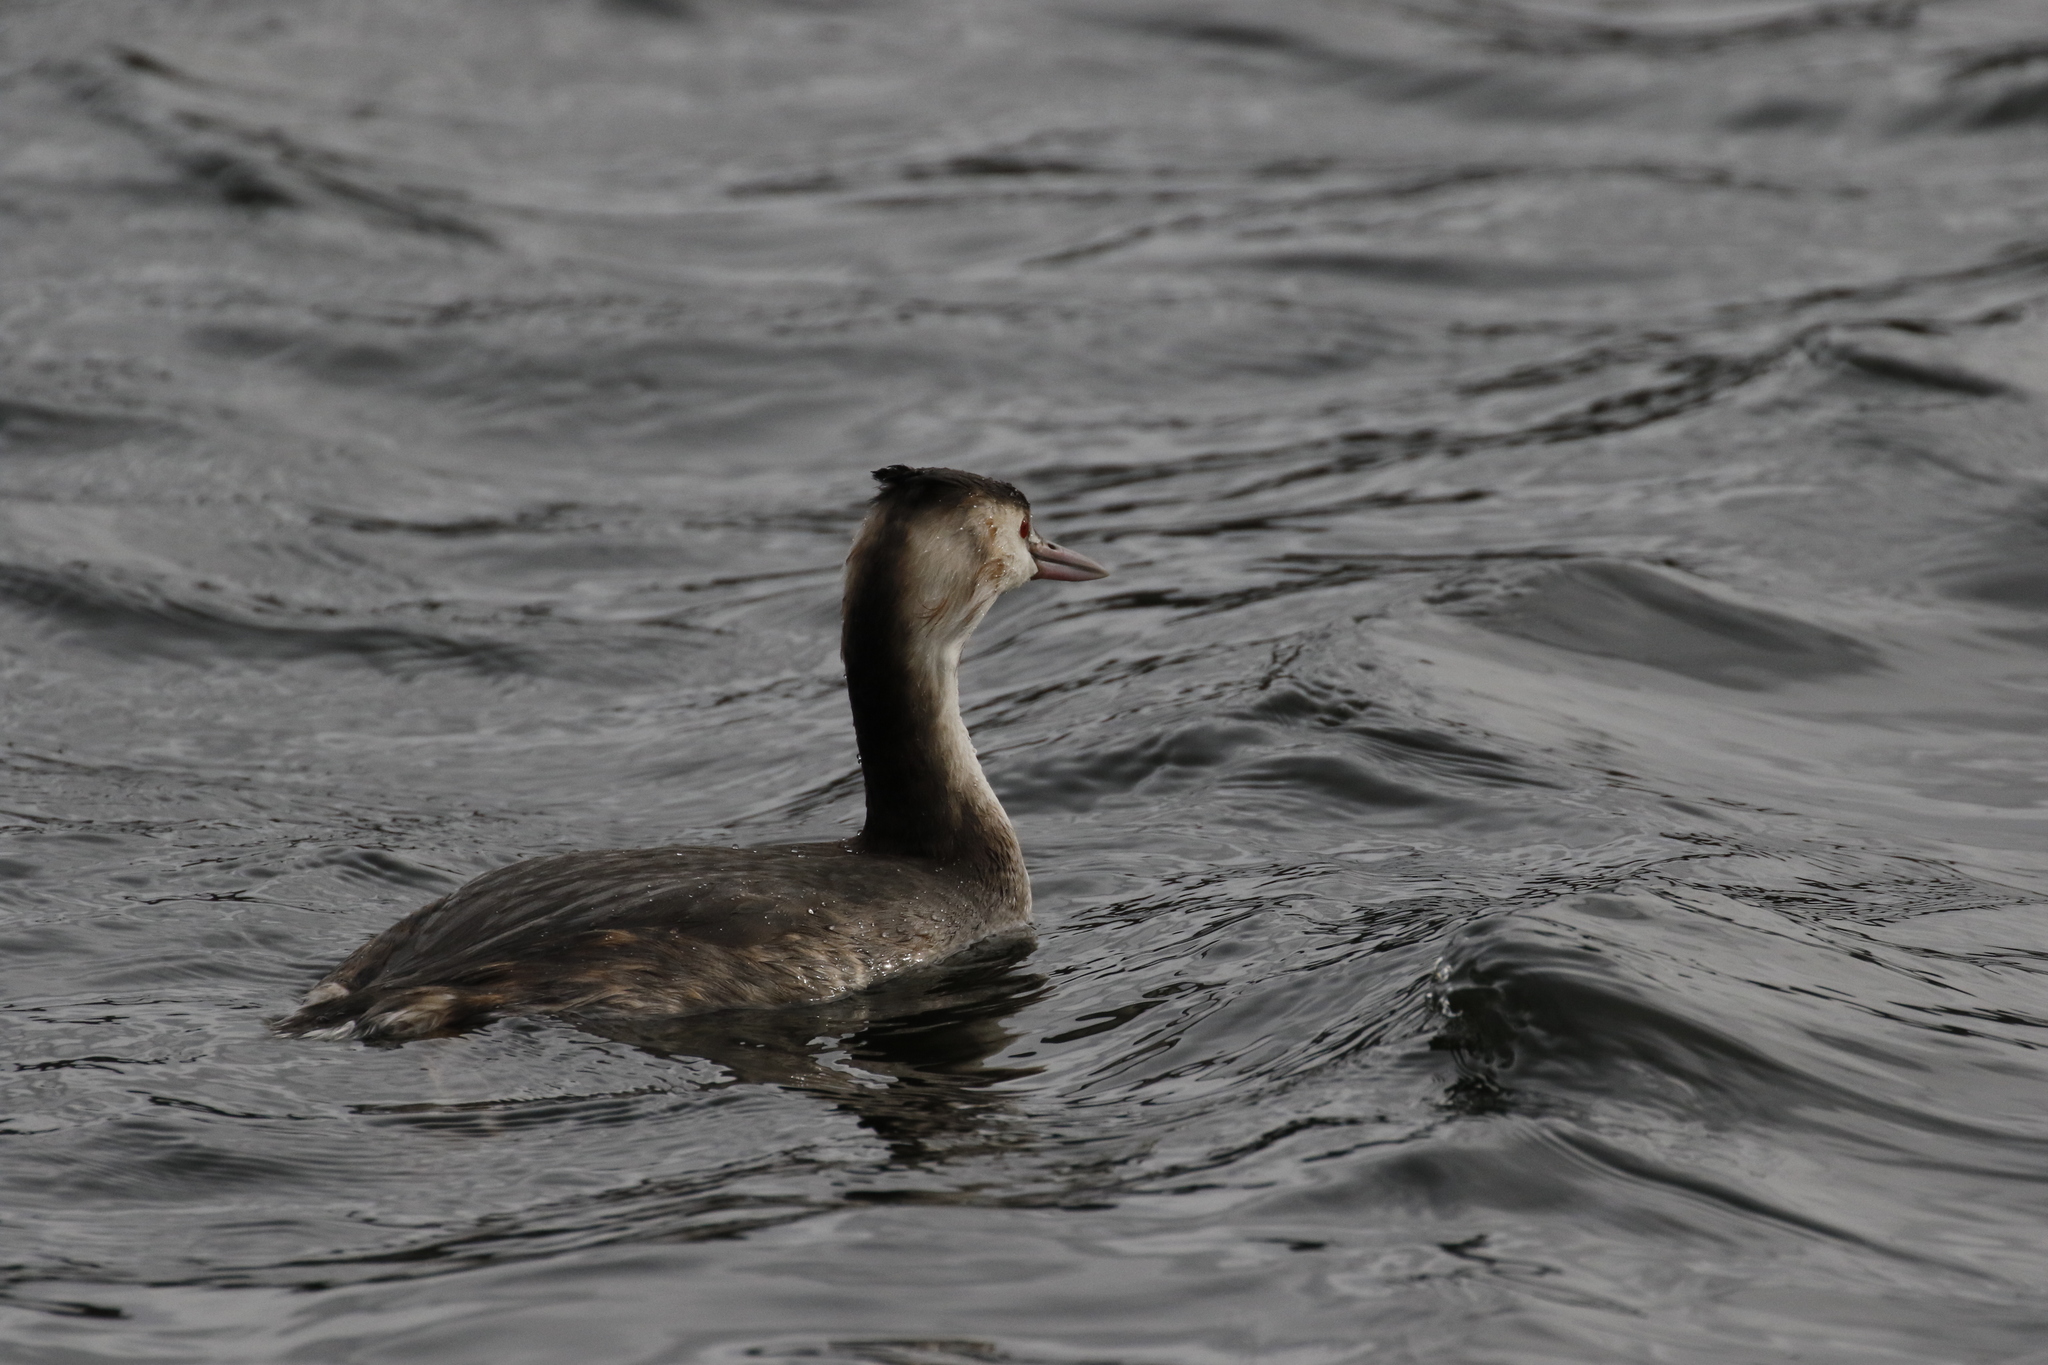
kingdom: Animalia
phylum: Chordata
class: Aves
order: Podicipediformes
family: Podicipedidae
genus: Podiceps
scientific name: Podiceps cristatus
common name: Great crested grebe
